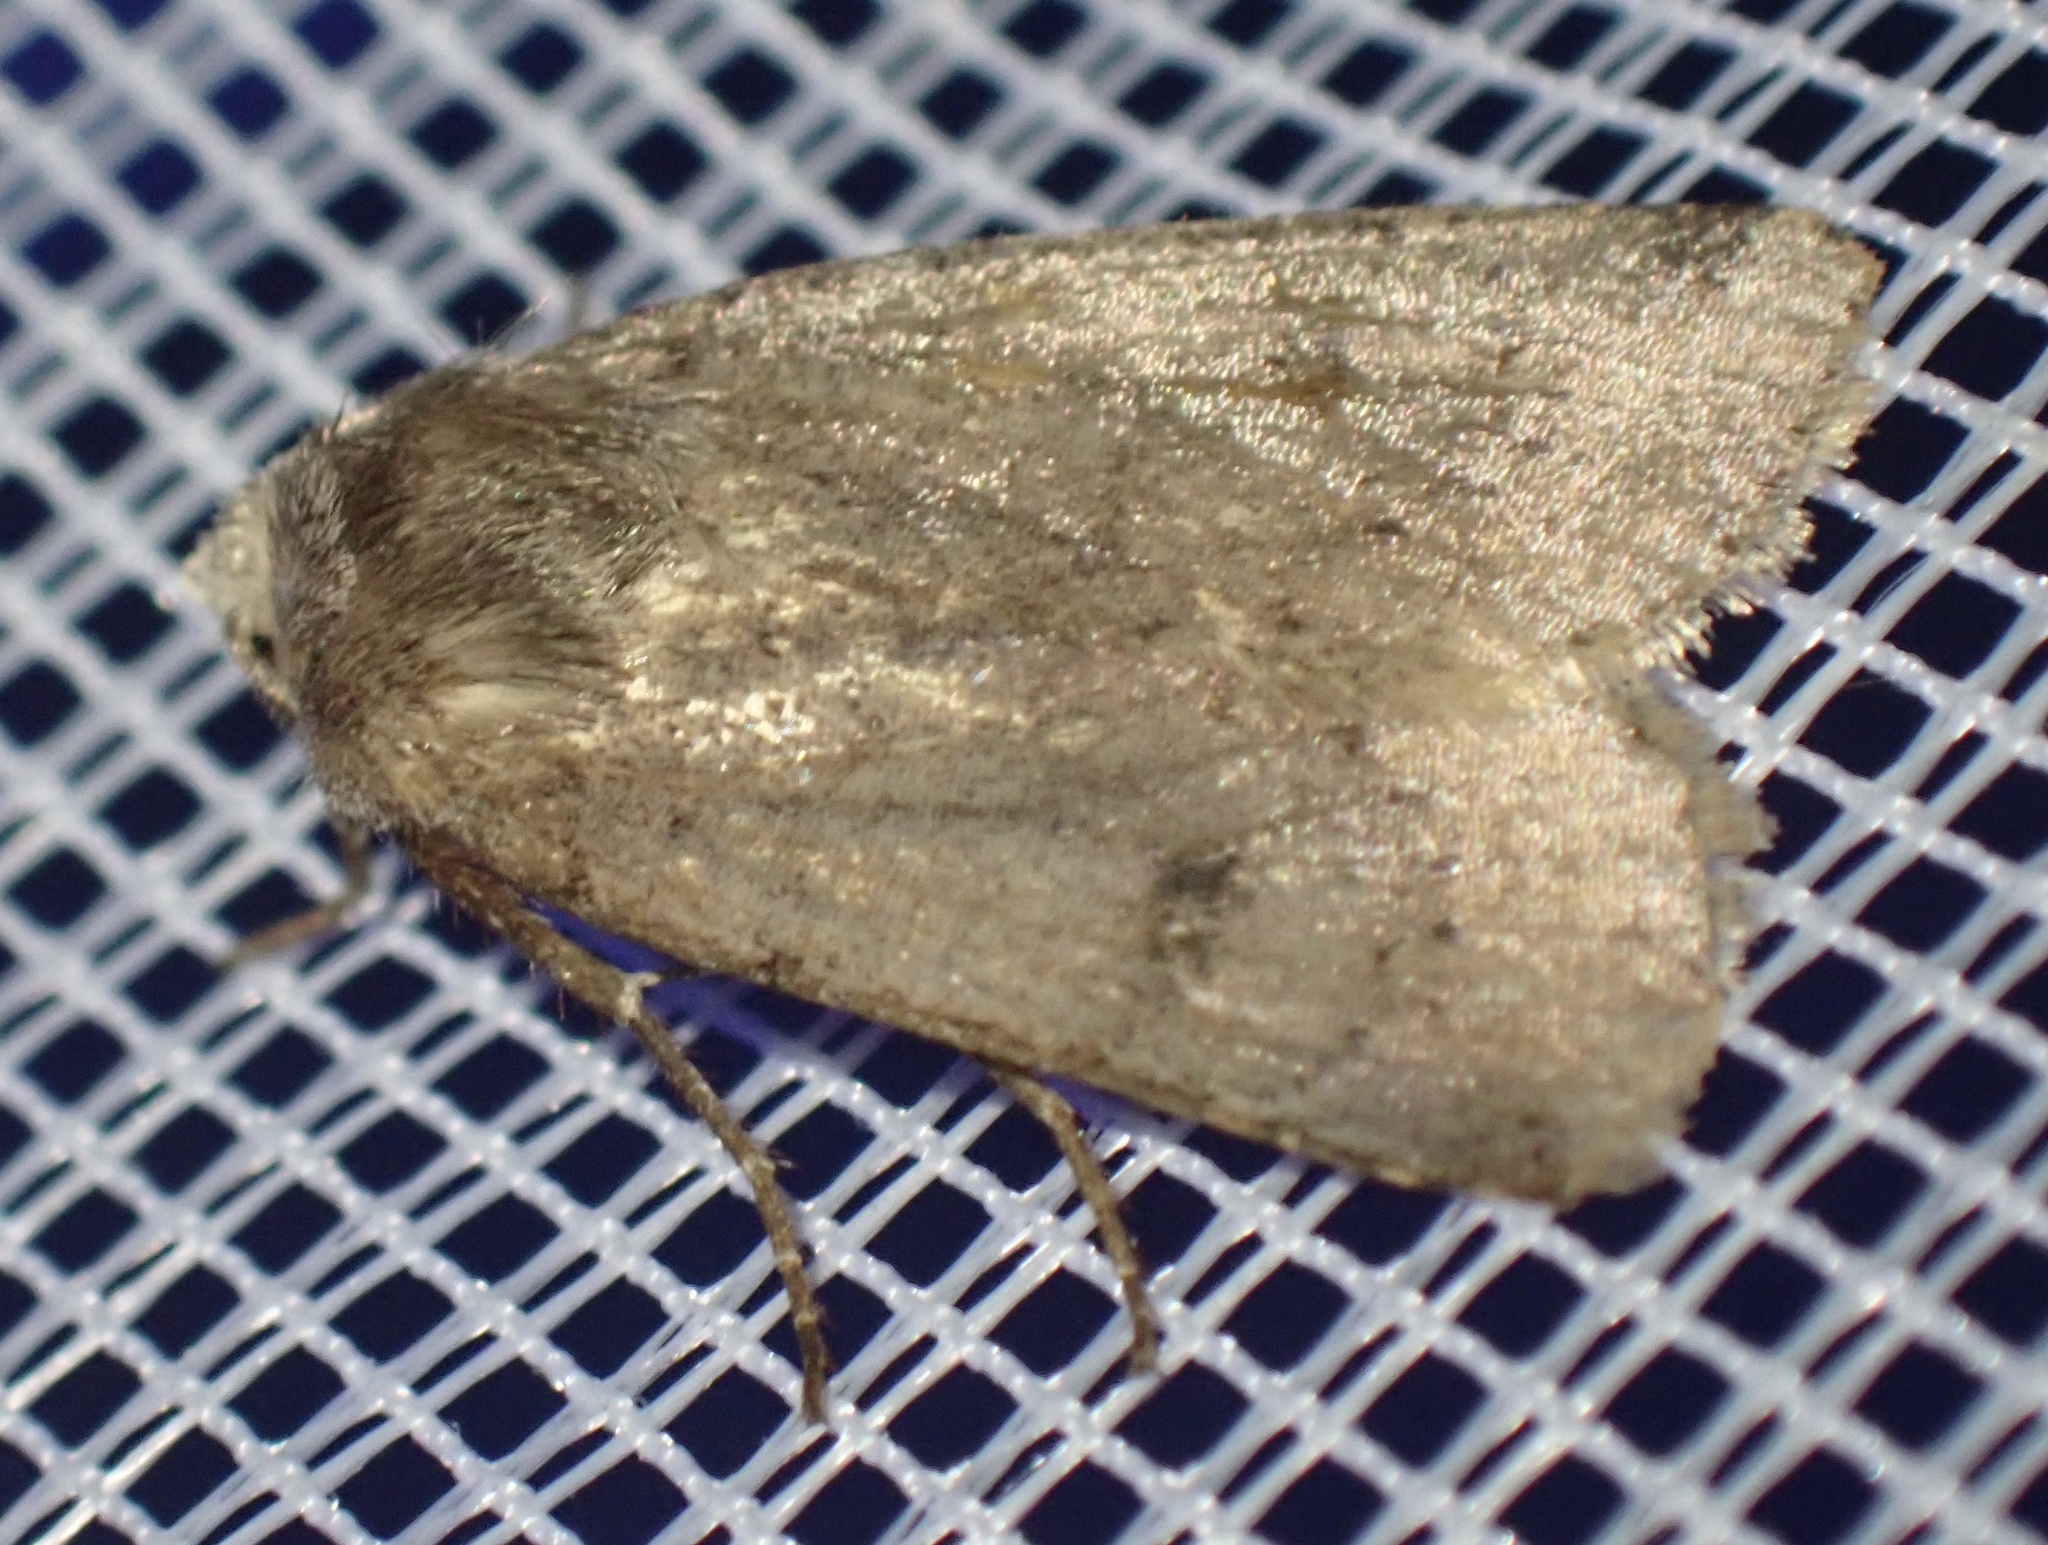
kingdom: Animalia
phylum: Arthropoda
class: Insecta
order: Lepidoptera
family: Noctuidae
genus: Cerastis
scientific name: Cerastis faceta
